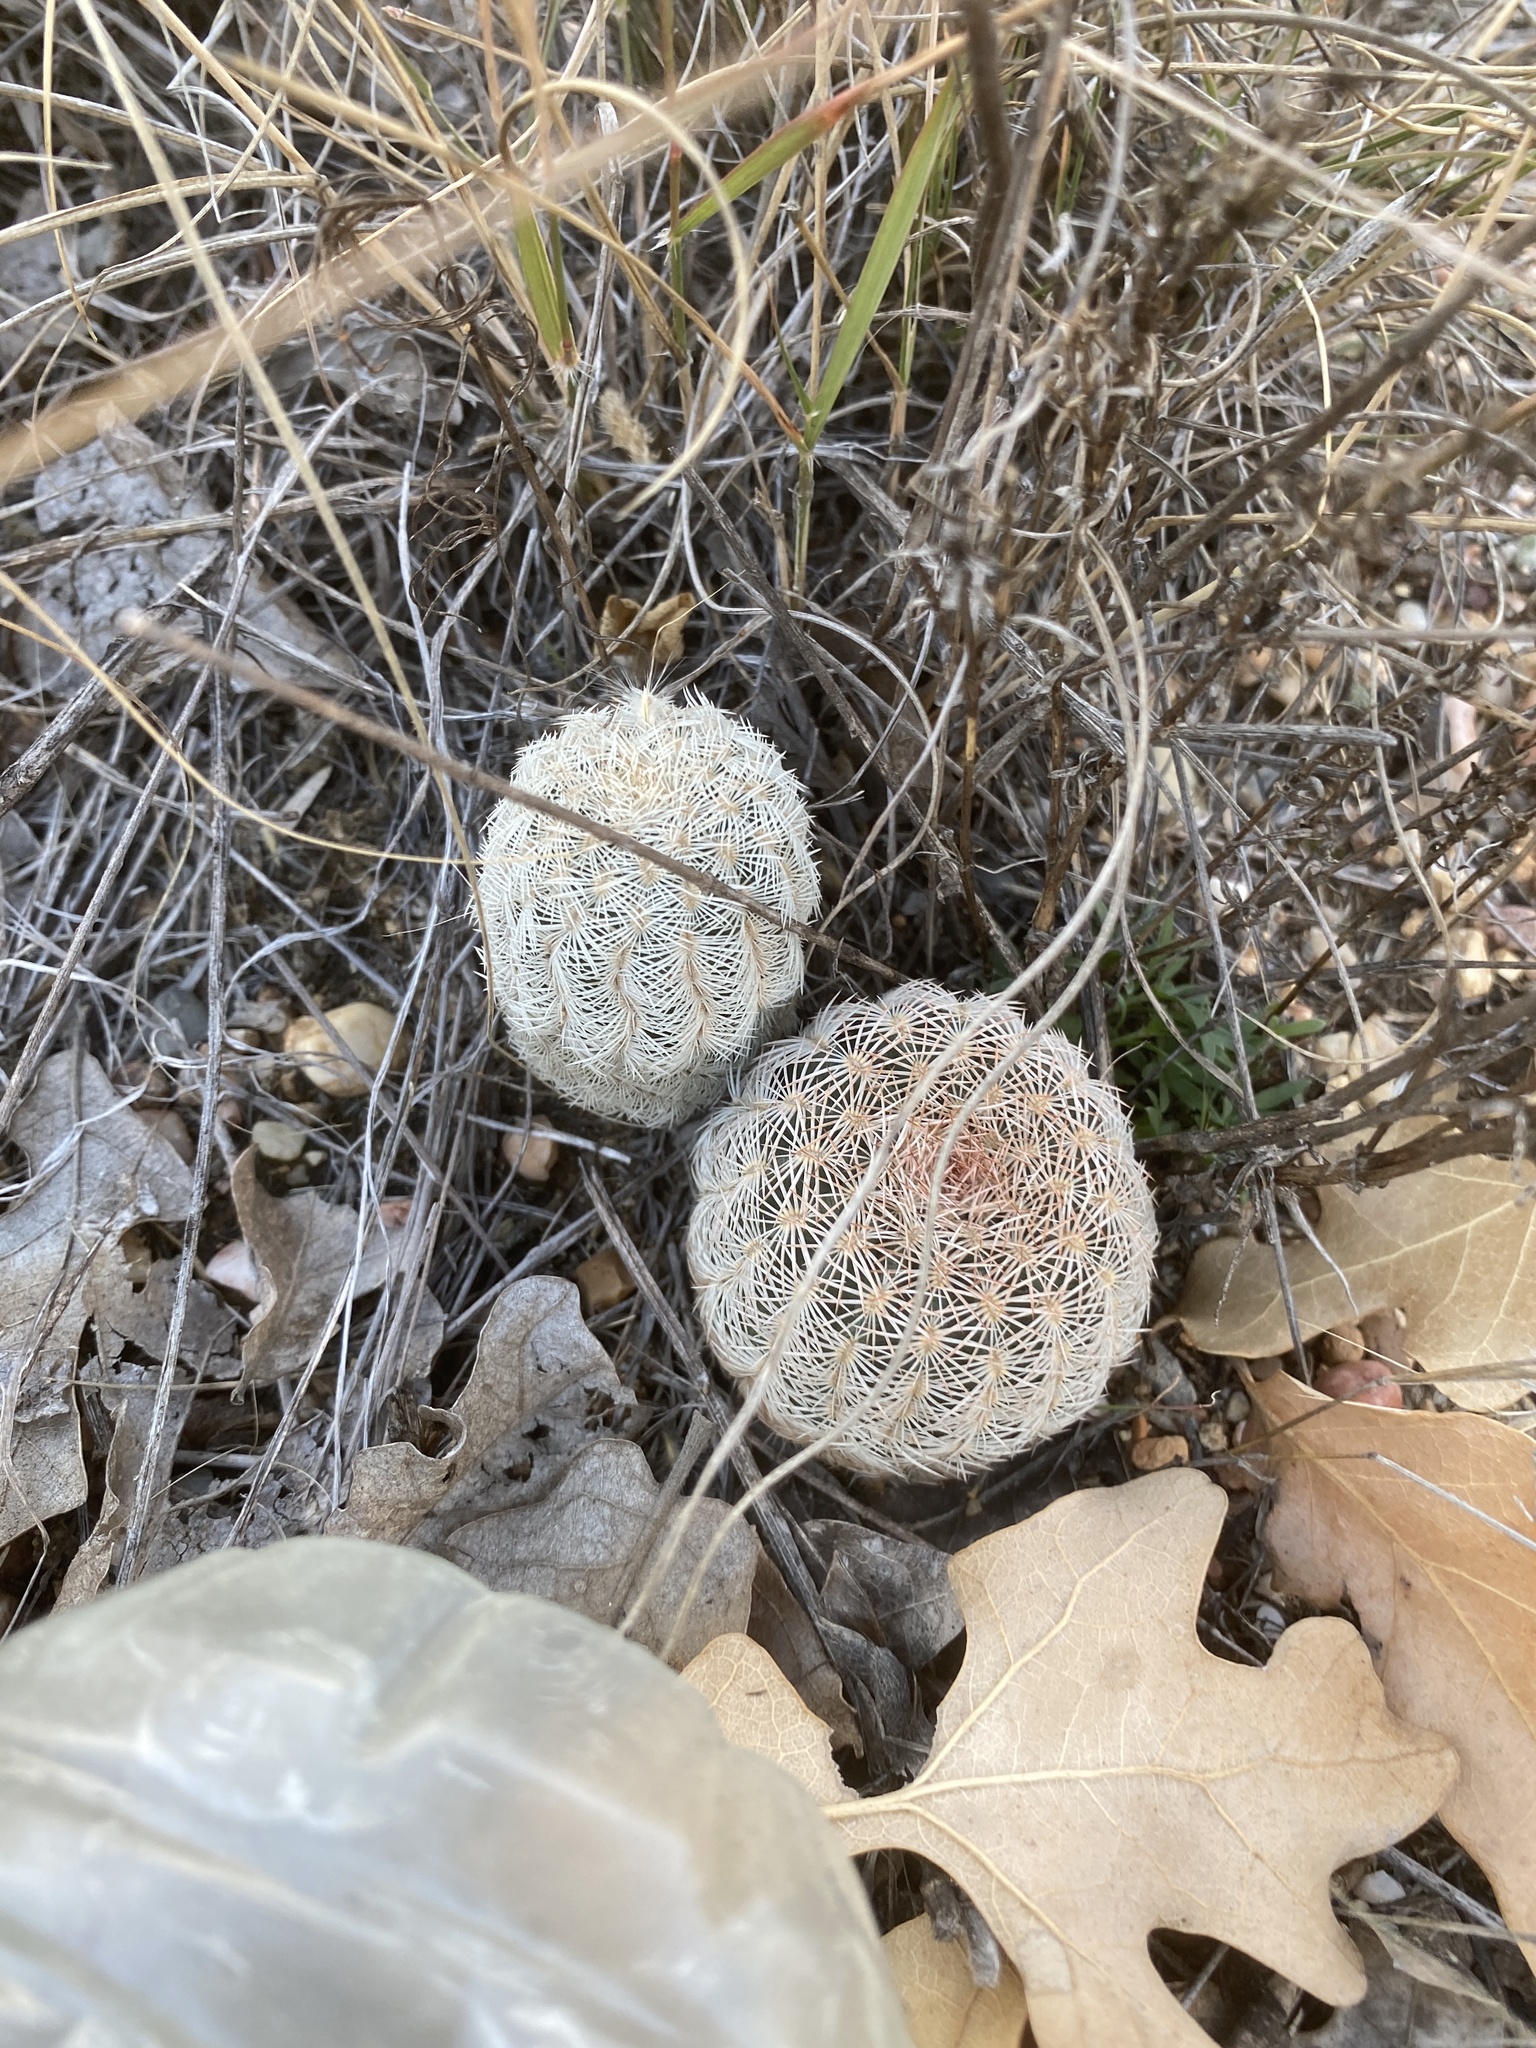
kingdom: Plantae
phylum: Tracheophyta
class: Magnoliopsida
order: Caryophyllales
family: Cactaceae
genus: Echinocereus
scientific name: Echinocereus reichenbachii
